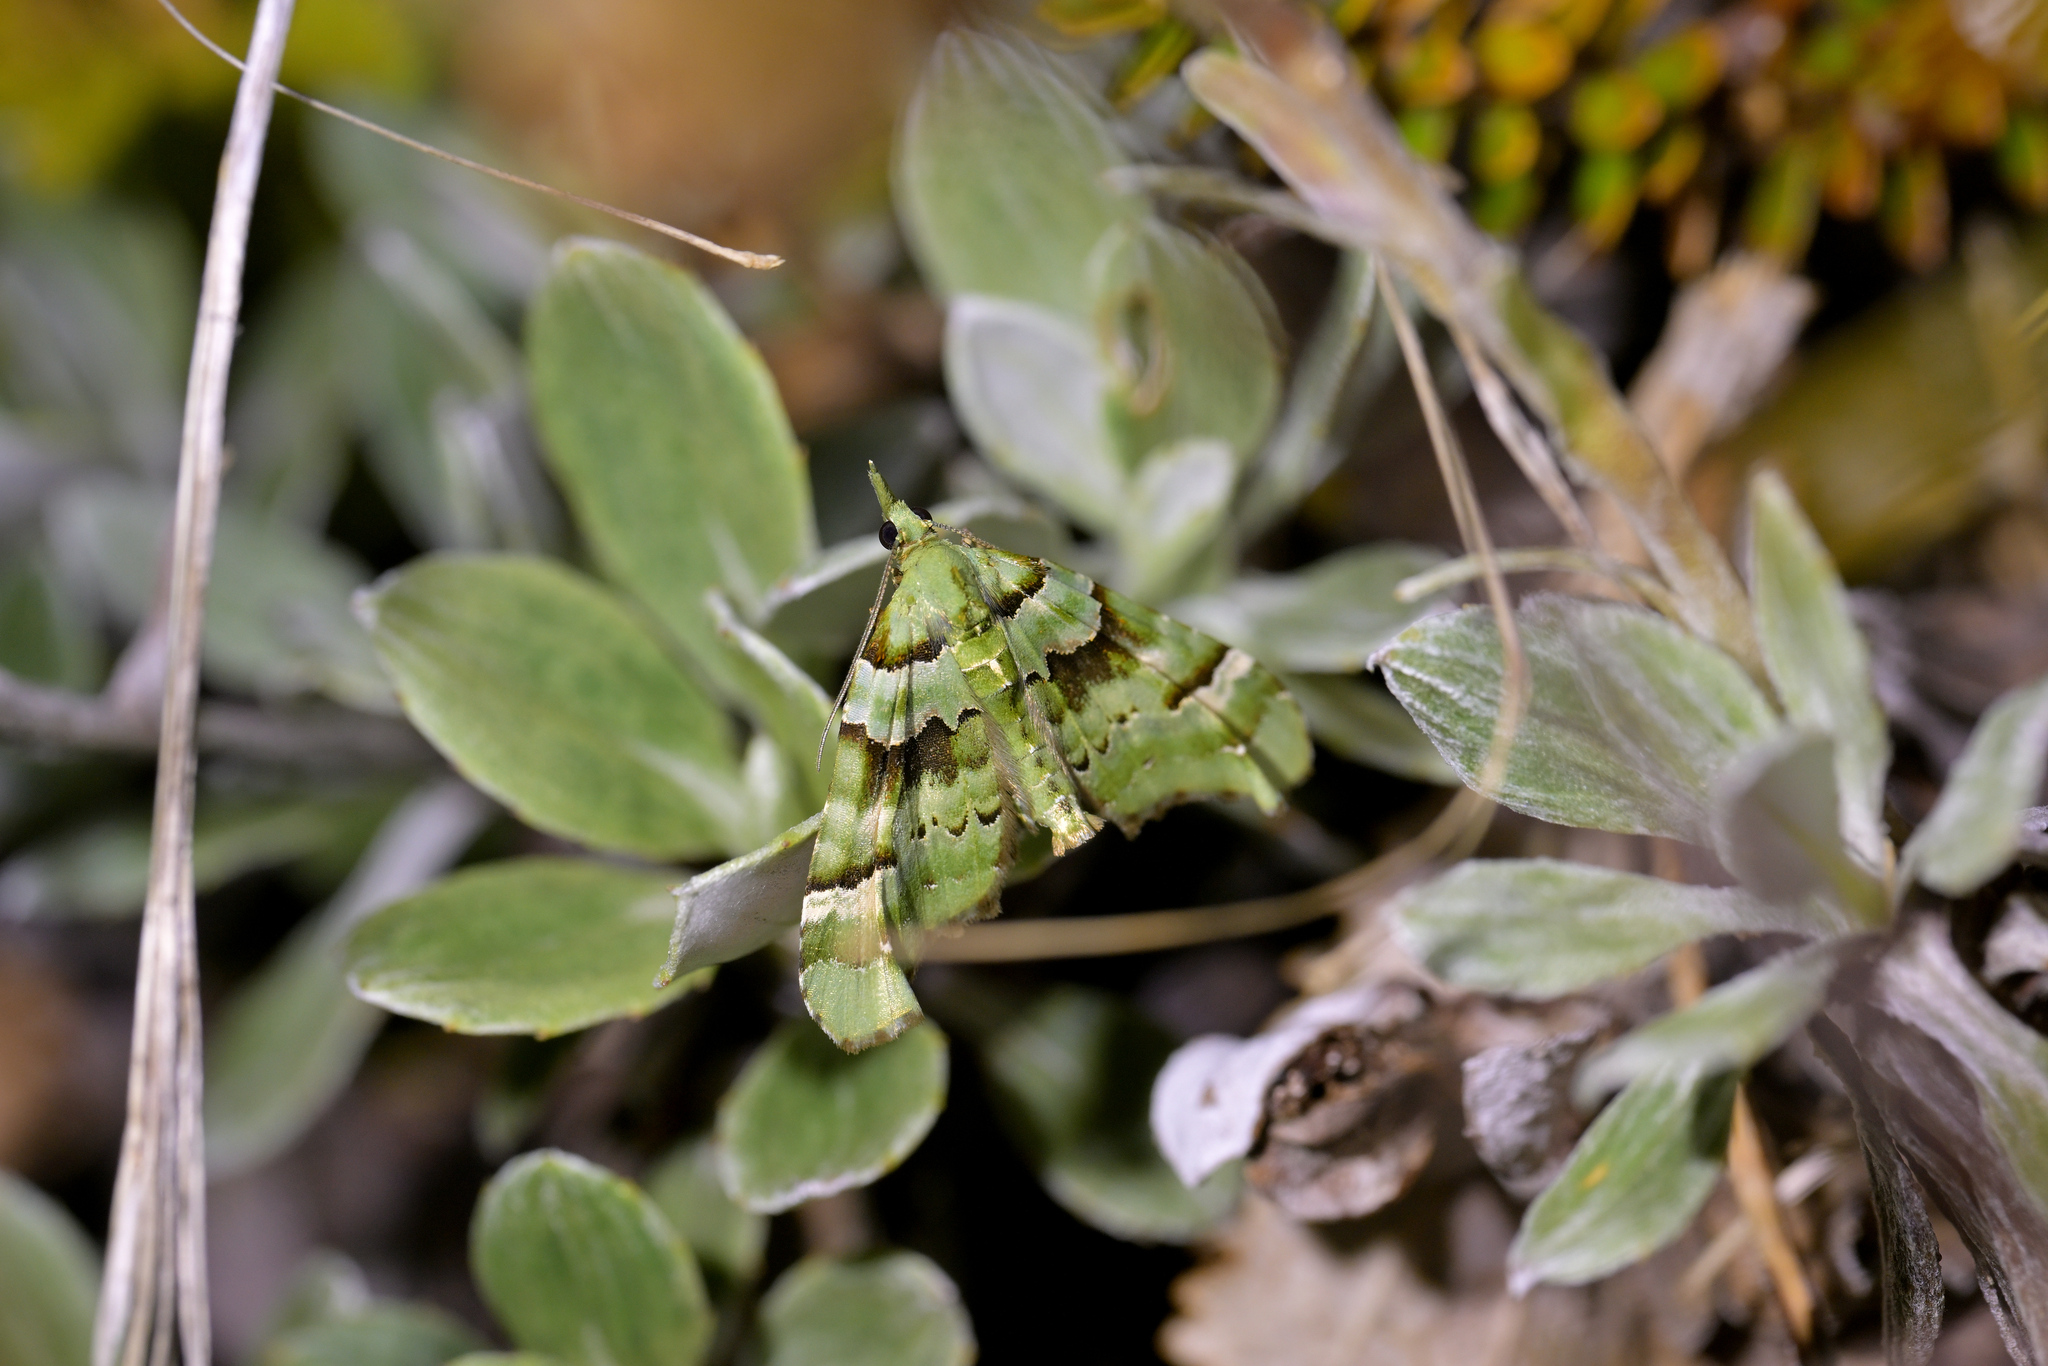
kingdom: Animalia
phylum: Arthropoda
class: Insecta
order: Lepidoptera
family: Geometridae
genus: Elvia
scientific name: Elvia glaucata
